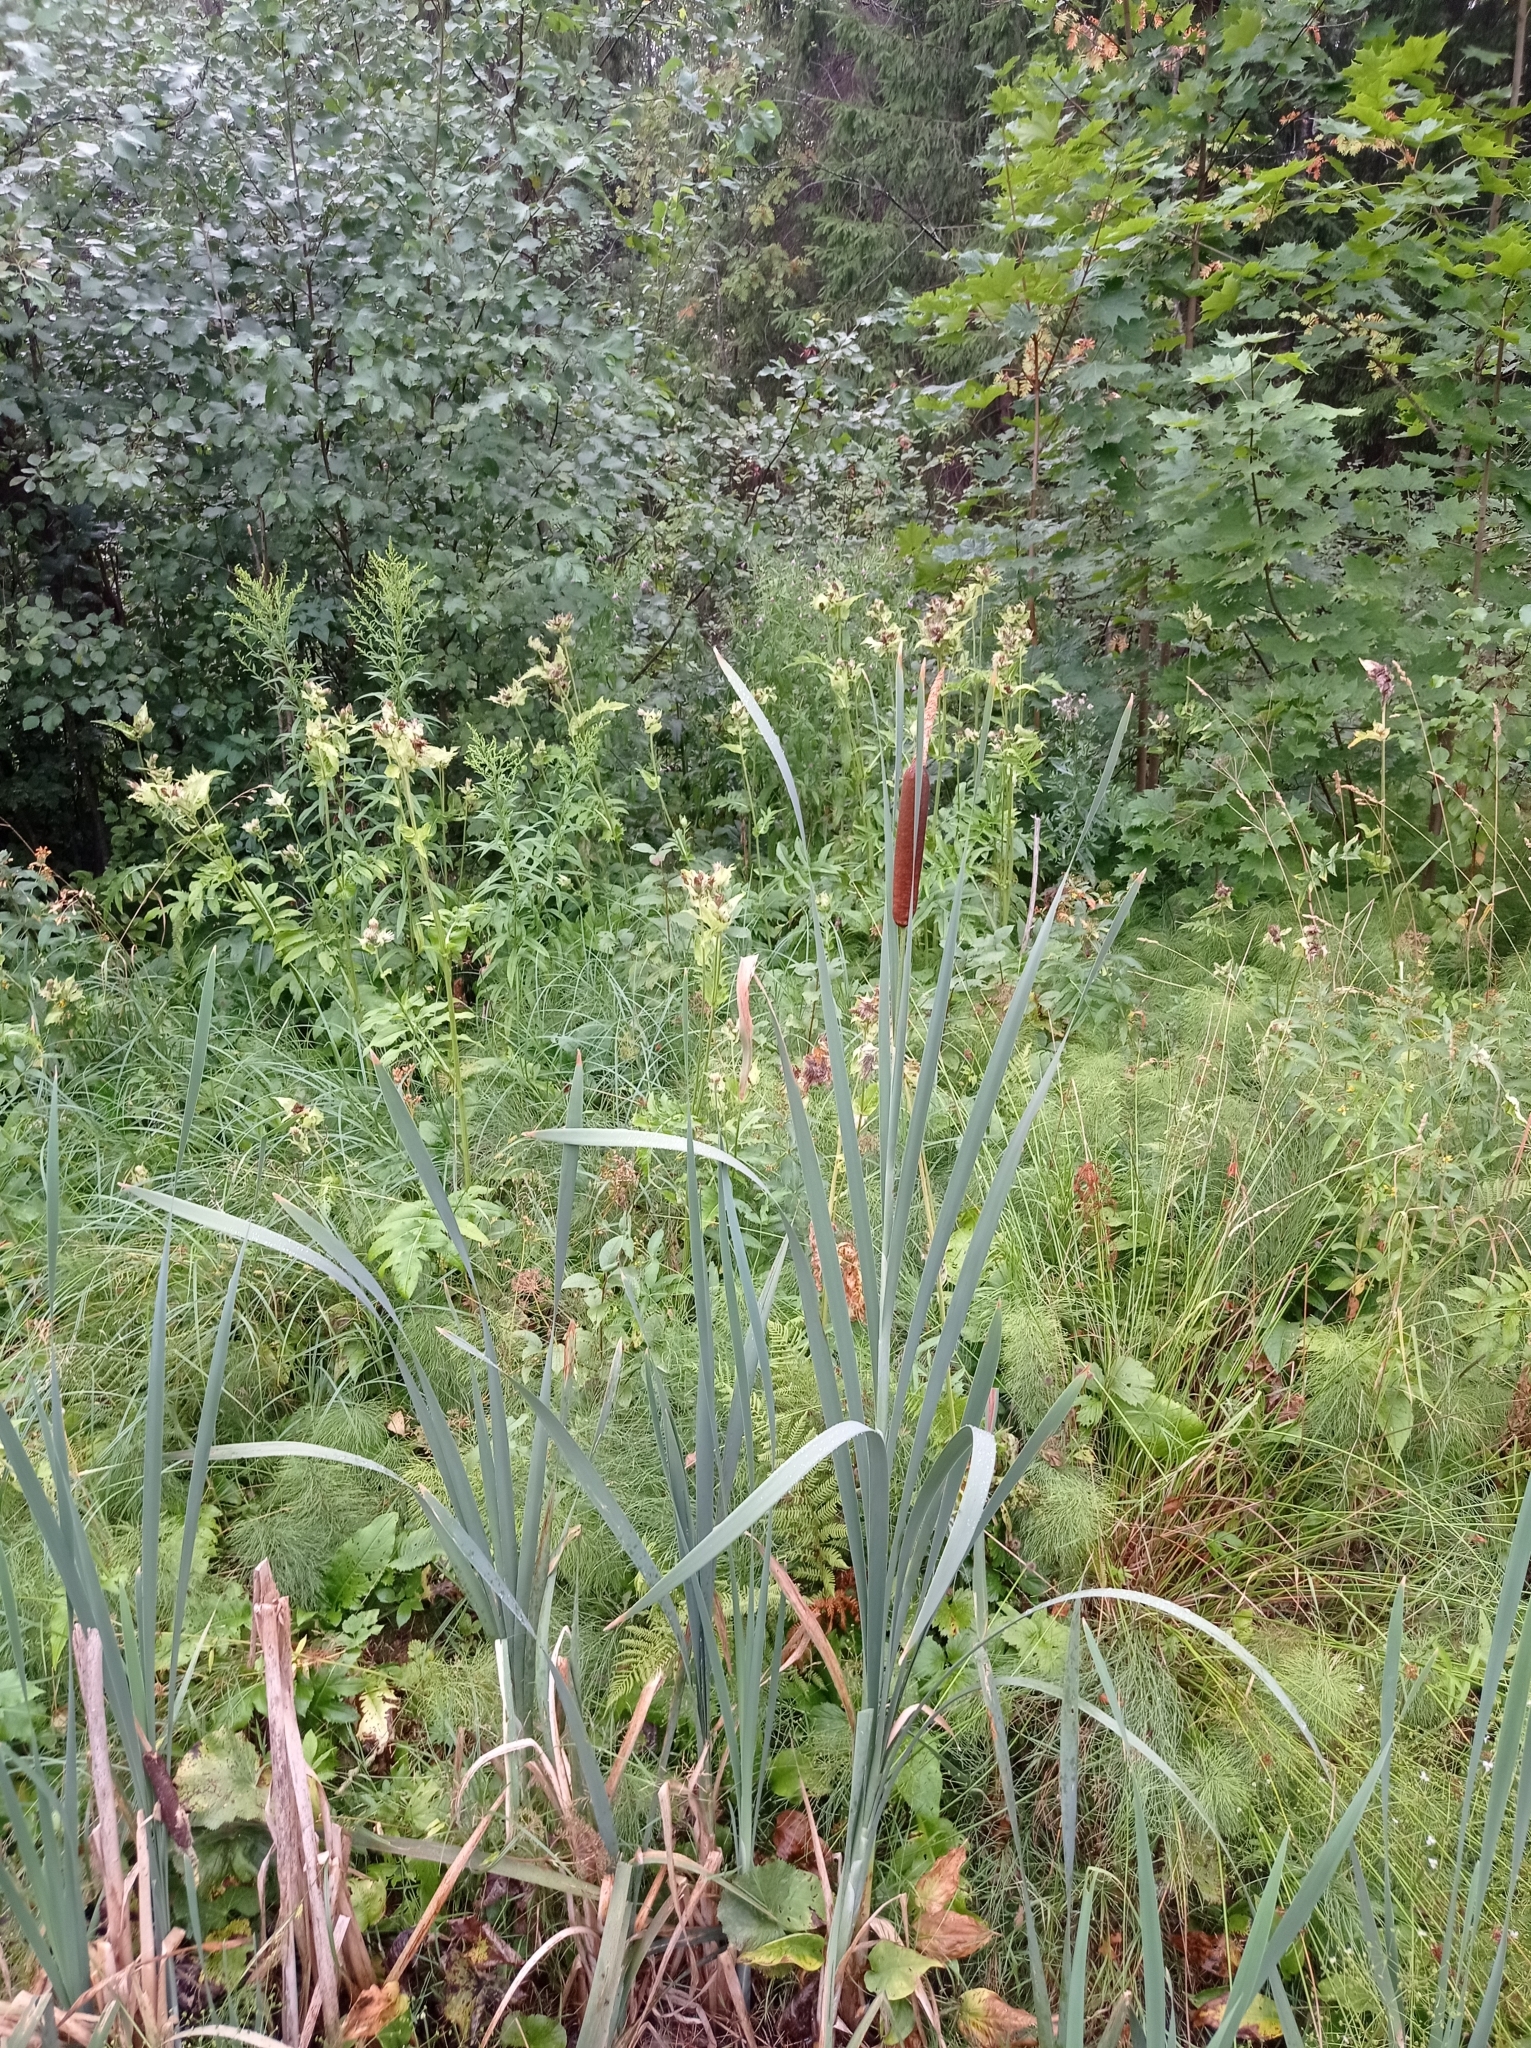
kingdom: Plantae
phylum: Tracheophyta
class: Liliopsida
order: Poales
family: Typhaceae
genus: Typha
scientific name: Typha latifolia
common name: Broadleaf cattail
